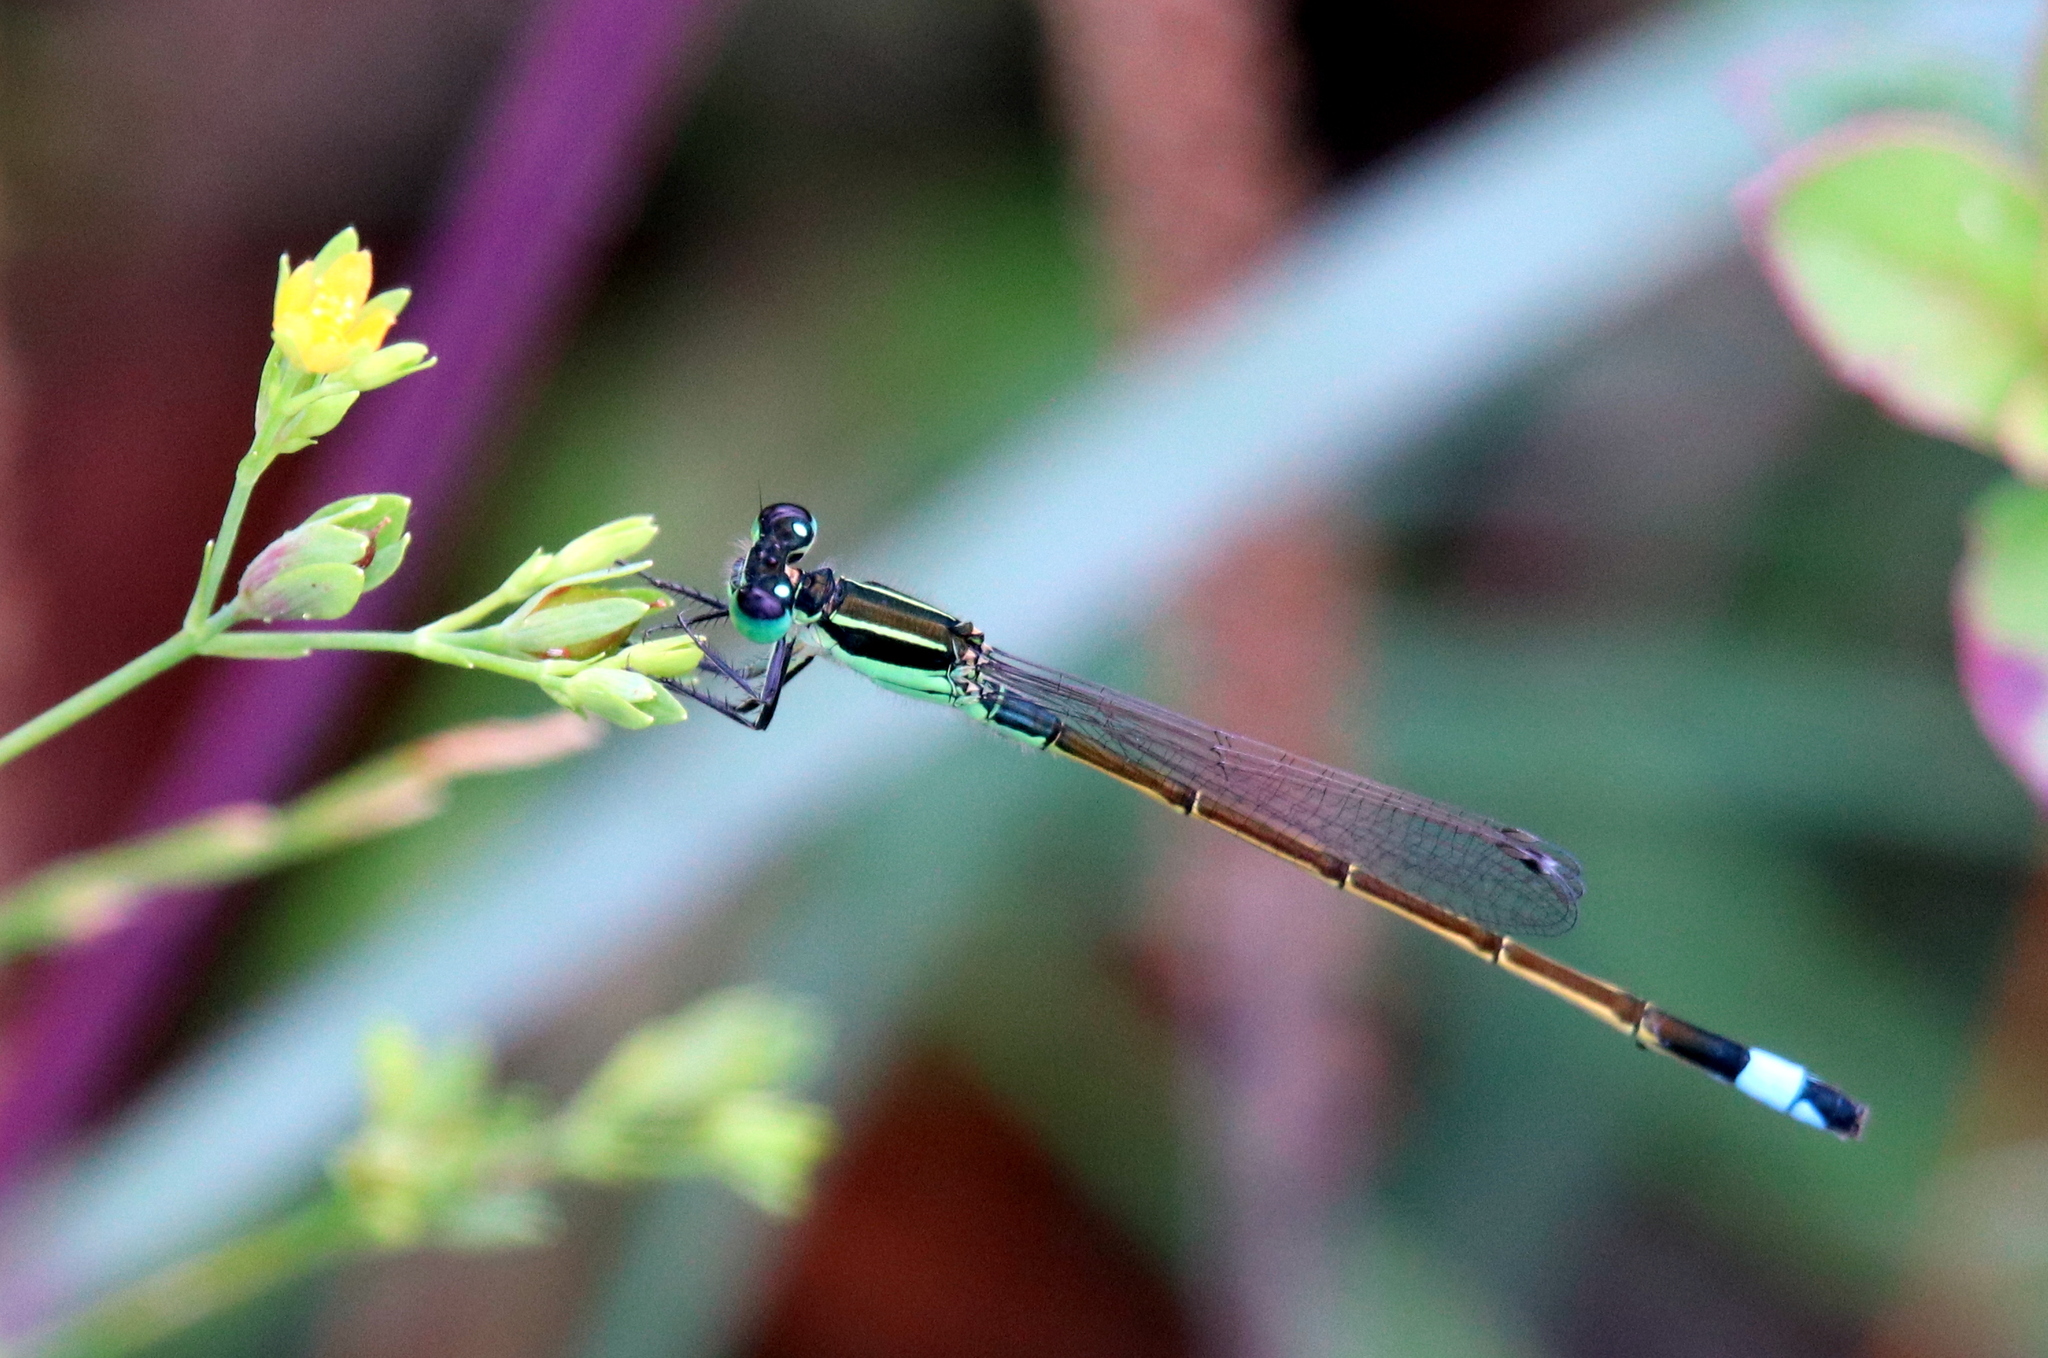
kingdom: Animalia
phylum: Arthropoda
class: Insecta
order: Odonata
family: Coenagrionidae
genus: Ischnura
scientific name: Ischnura ramburii
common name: Rambur's forktail
